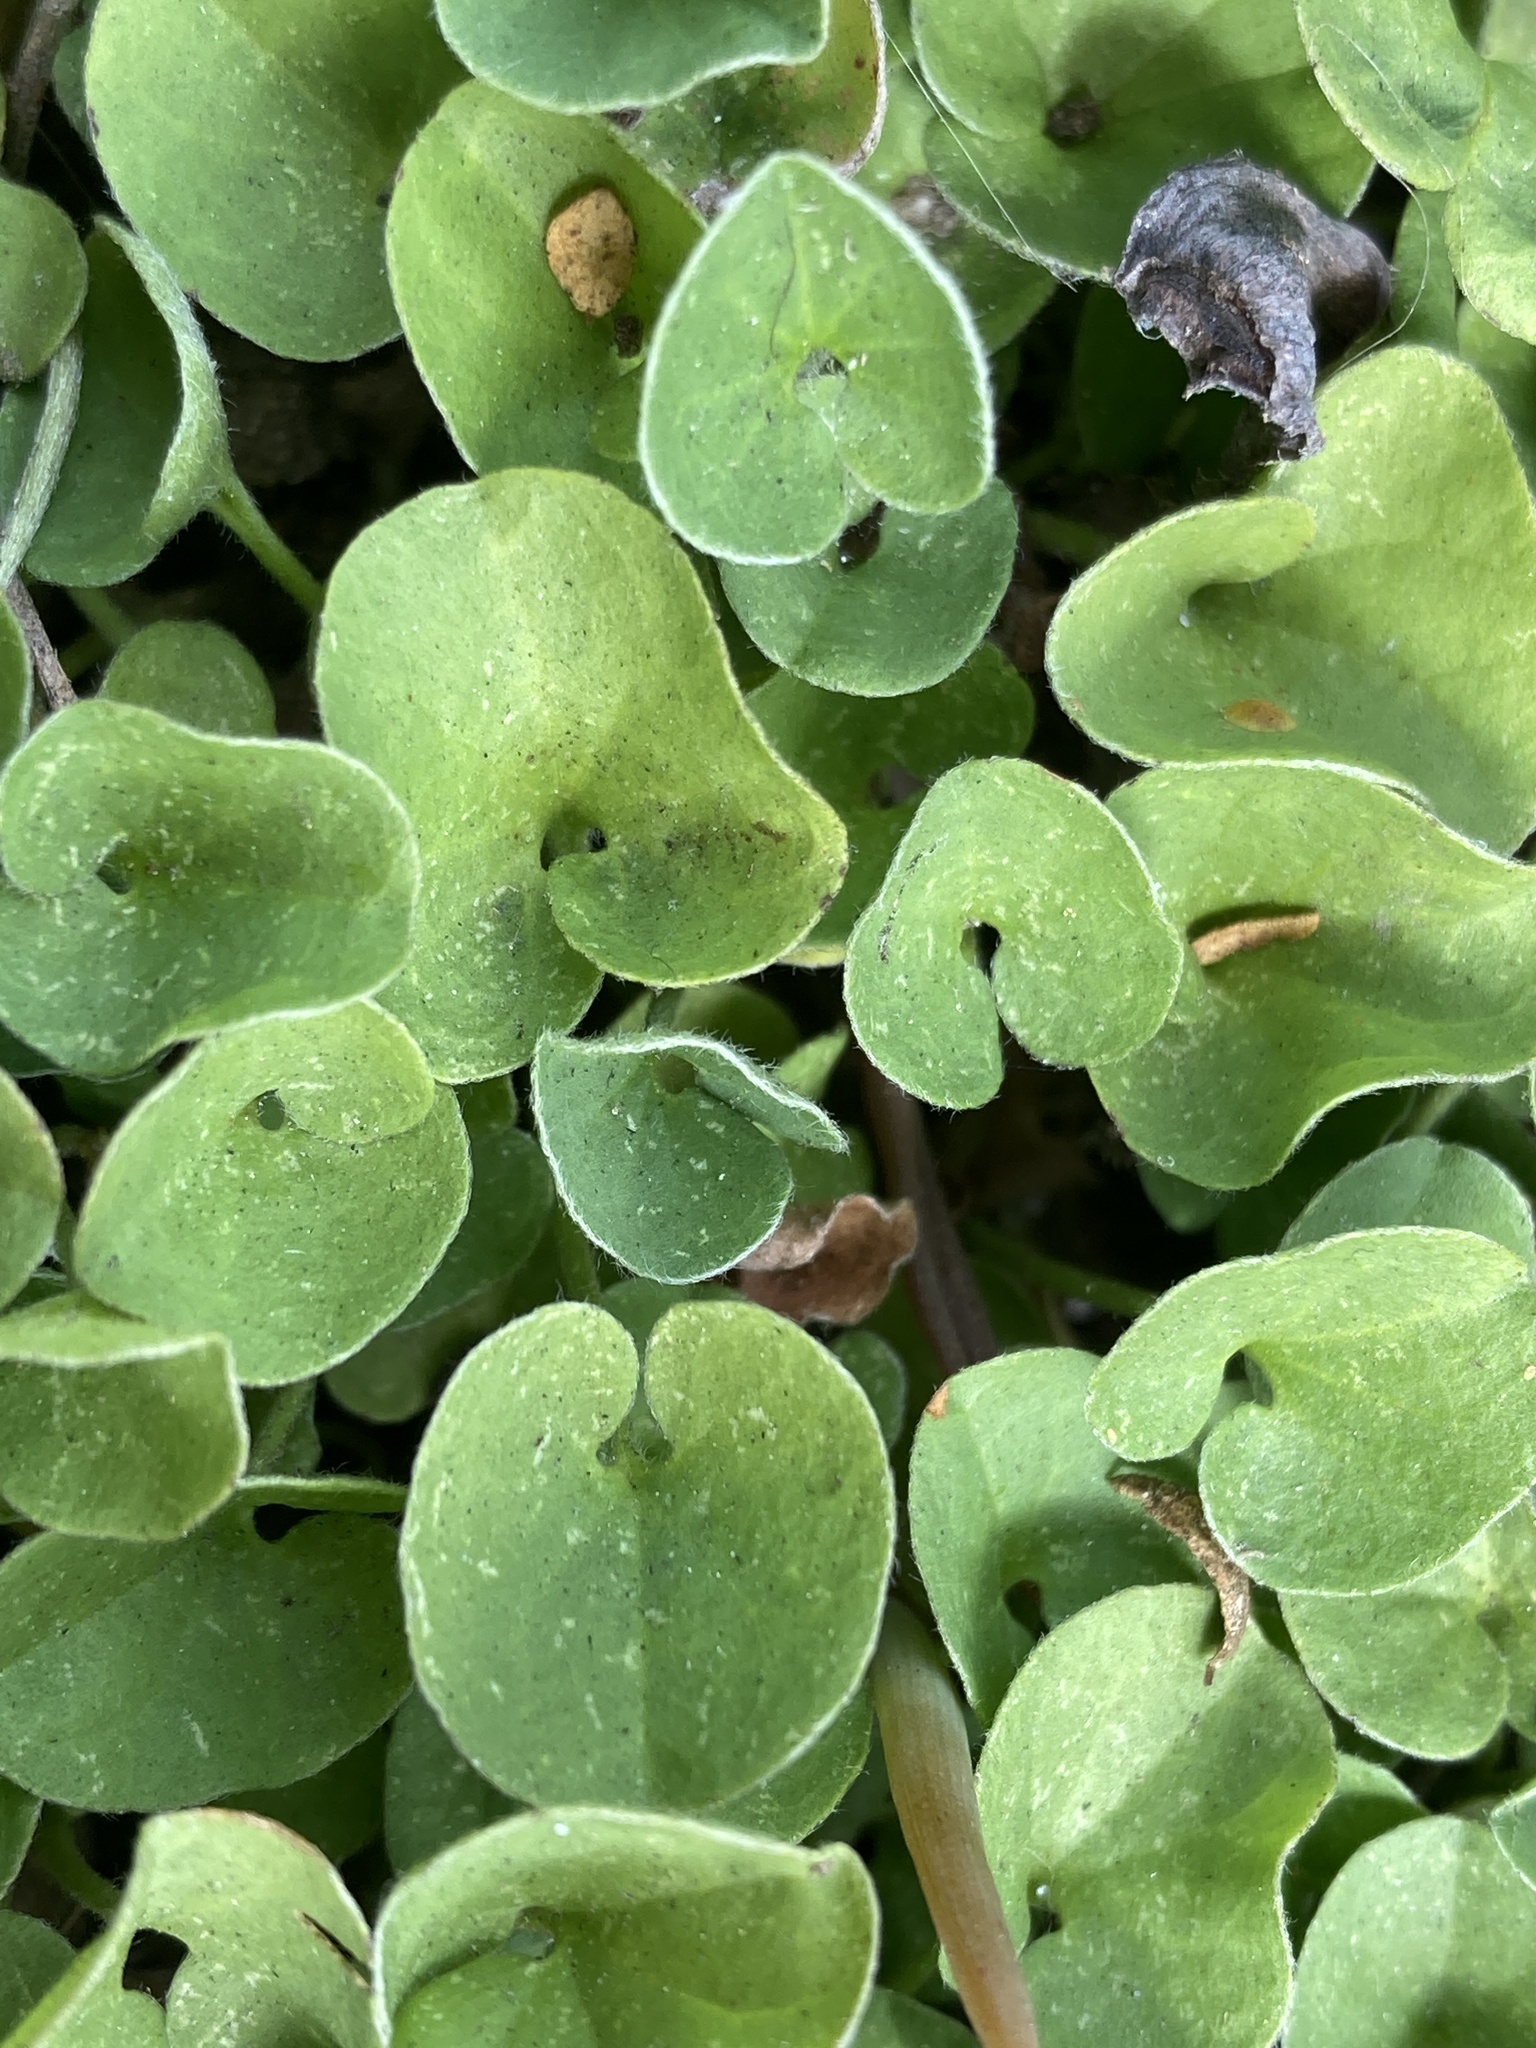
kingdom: Plantae
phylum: Tracheophyta
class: Magnoliopsida
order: Solanales
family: Convolvulaceae
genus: Dichondra
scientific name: Dichondra micrantha
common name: Kidneyweed
